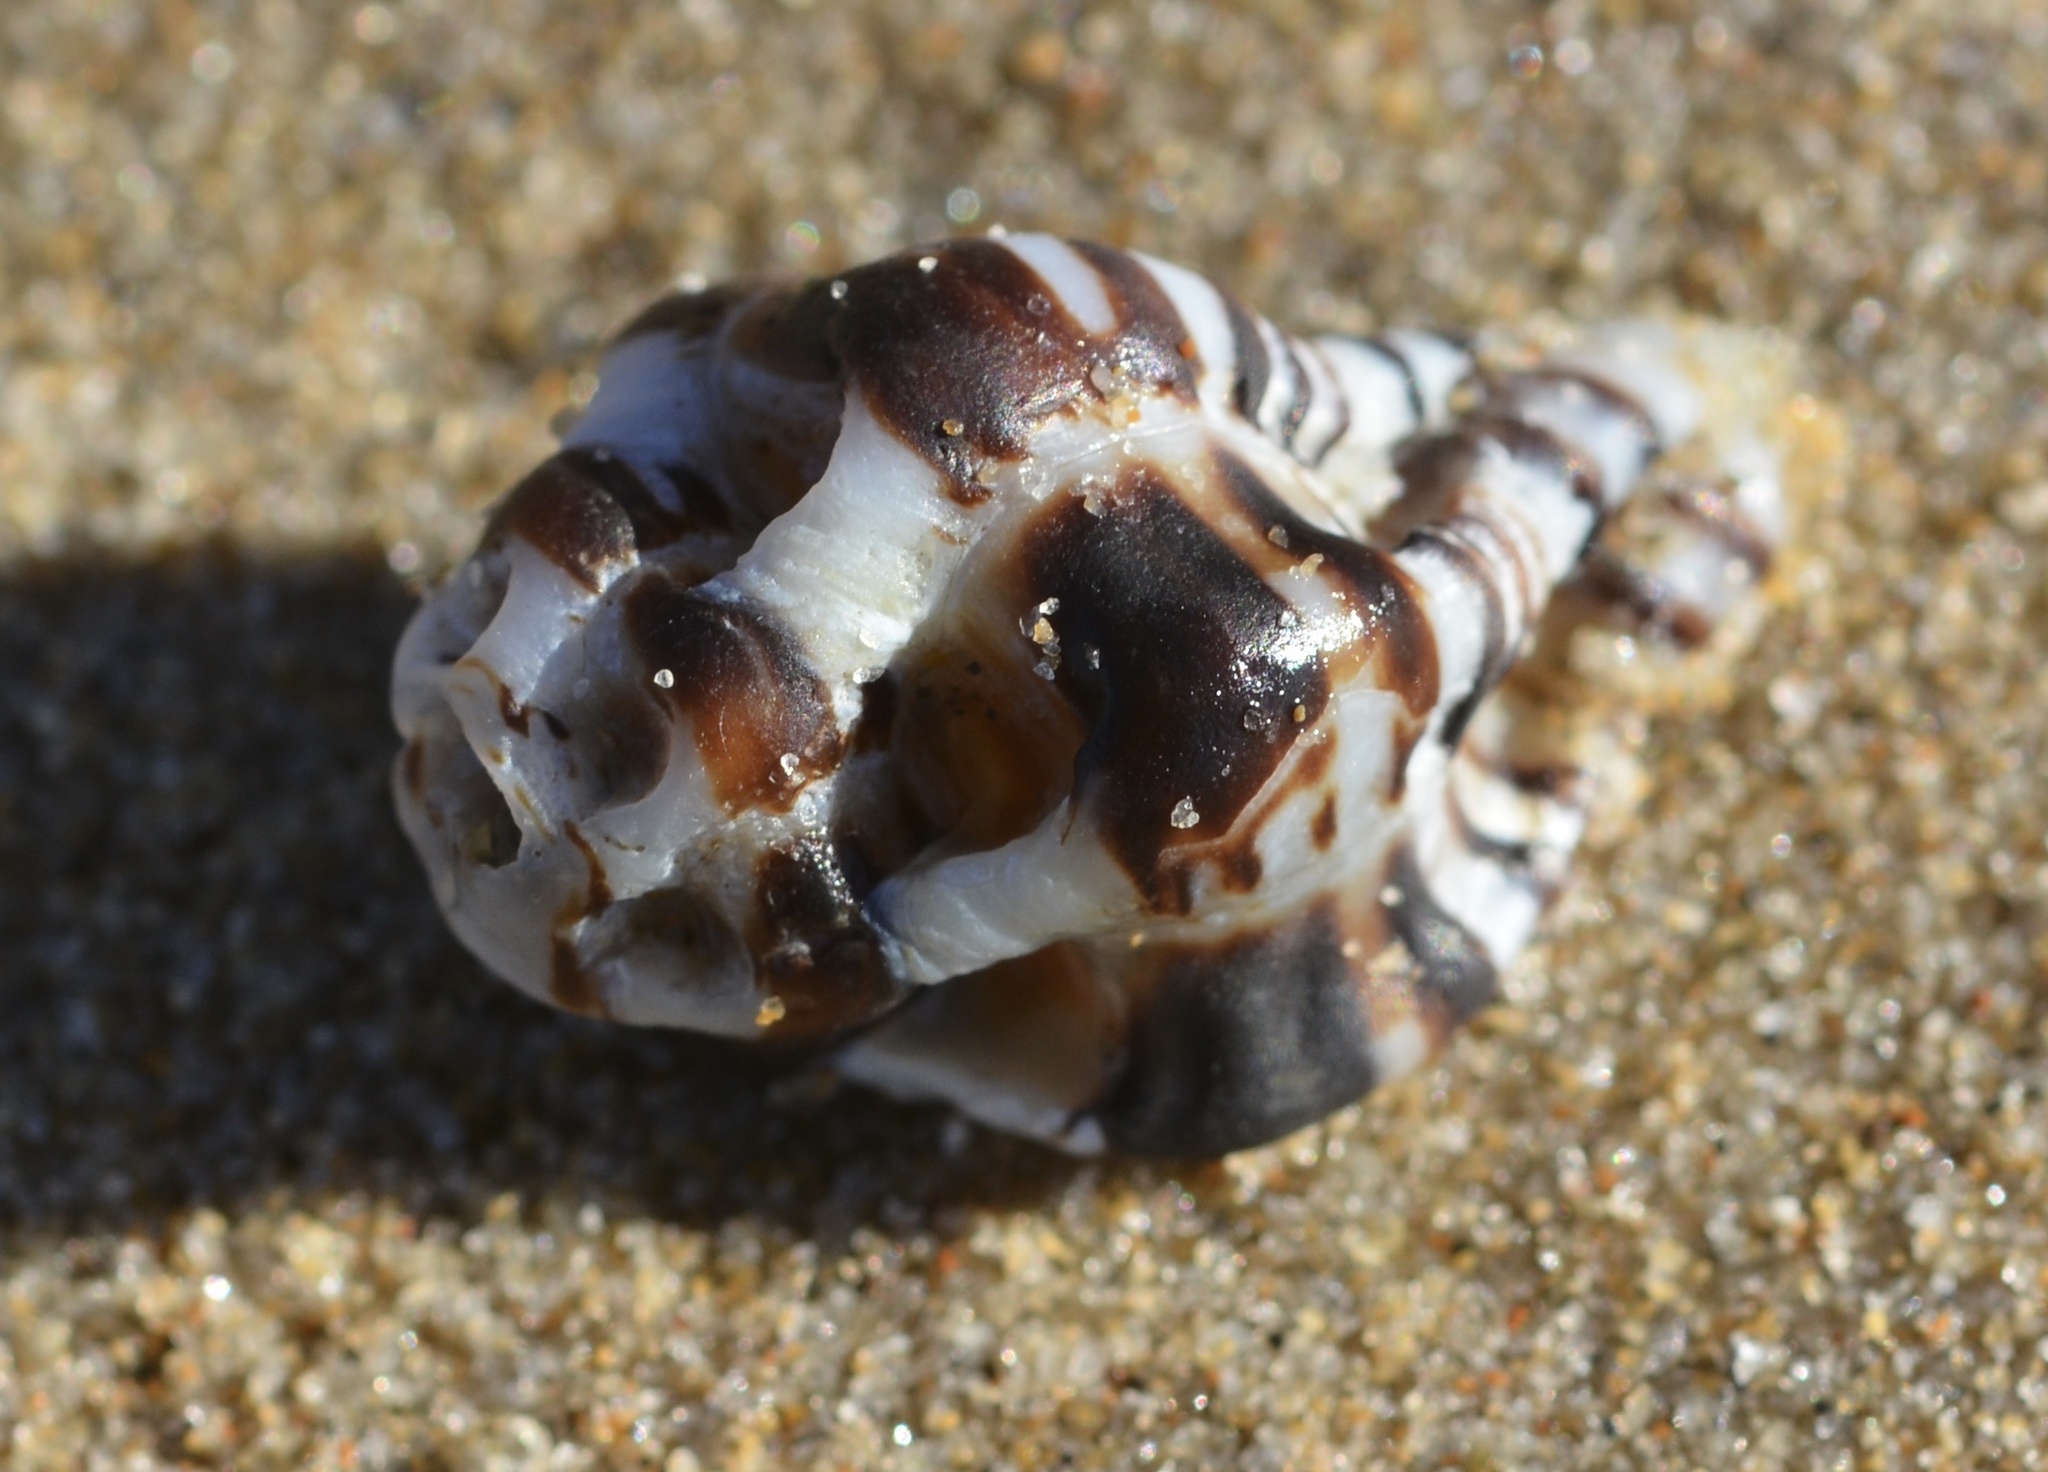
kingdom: Animalia
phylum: Mollusca
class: Gastropoda
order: Neogastropoda
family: Muricidae
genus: Maxwellia
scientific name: Maxwellia gemma
